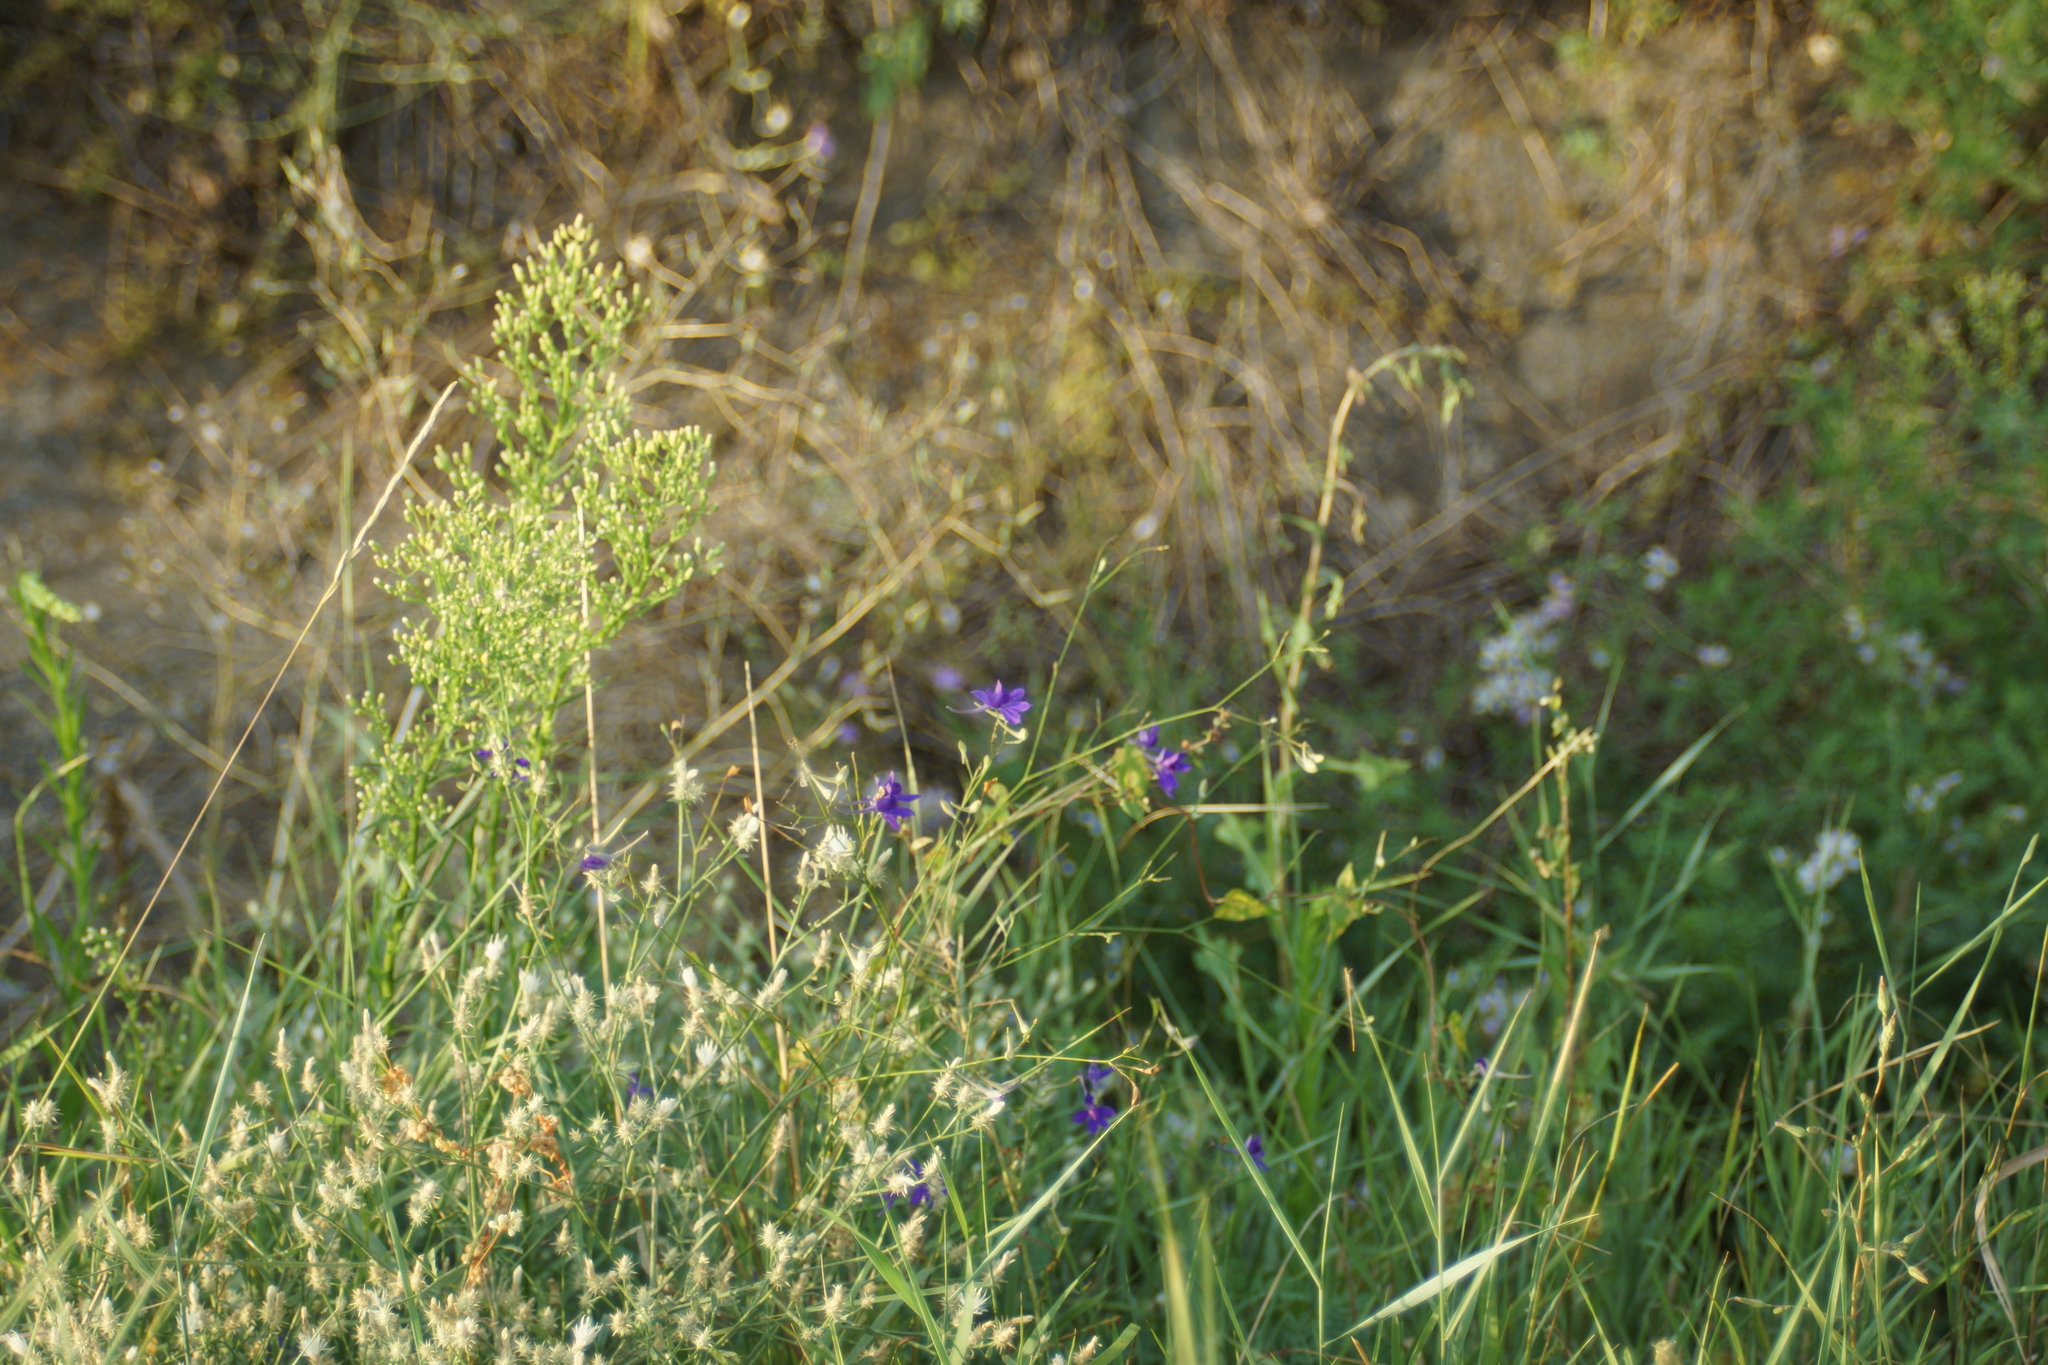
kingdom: Plantae
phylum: Tracheophyta
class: Magnoliopsida
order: Ranunculales
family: Ranunculaceae
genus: Delphinium
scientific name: Delphinium consolida
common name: Branching larkspur
